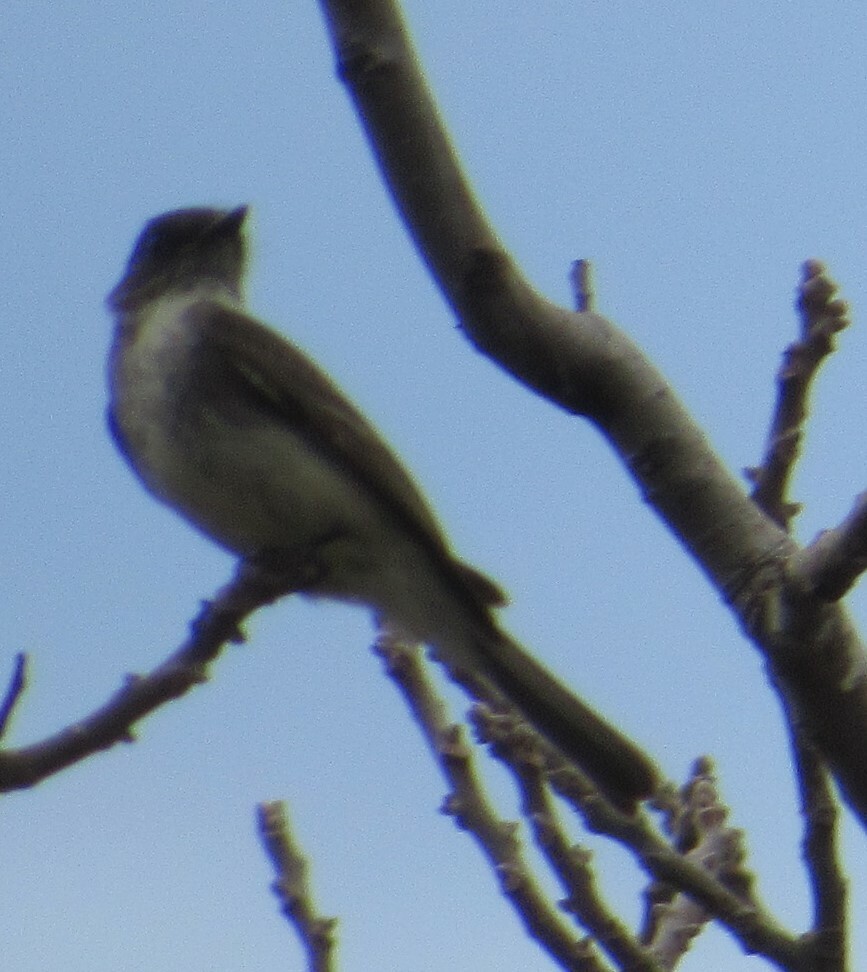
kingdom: Animalia
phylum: Chordata
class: Aves
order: Passeriformes
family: Tyrannidae
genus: Sayornis
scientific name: Sayornis phoebe
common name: Eastern phoebe
